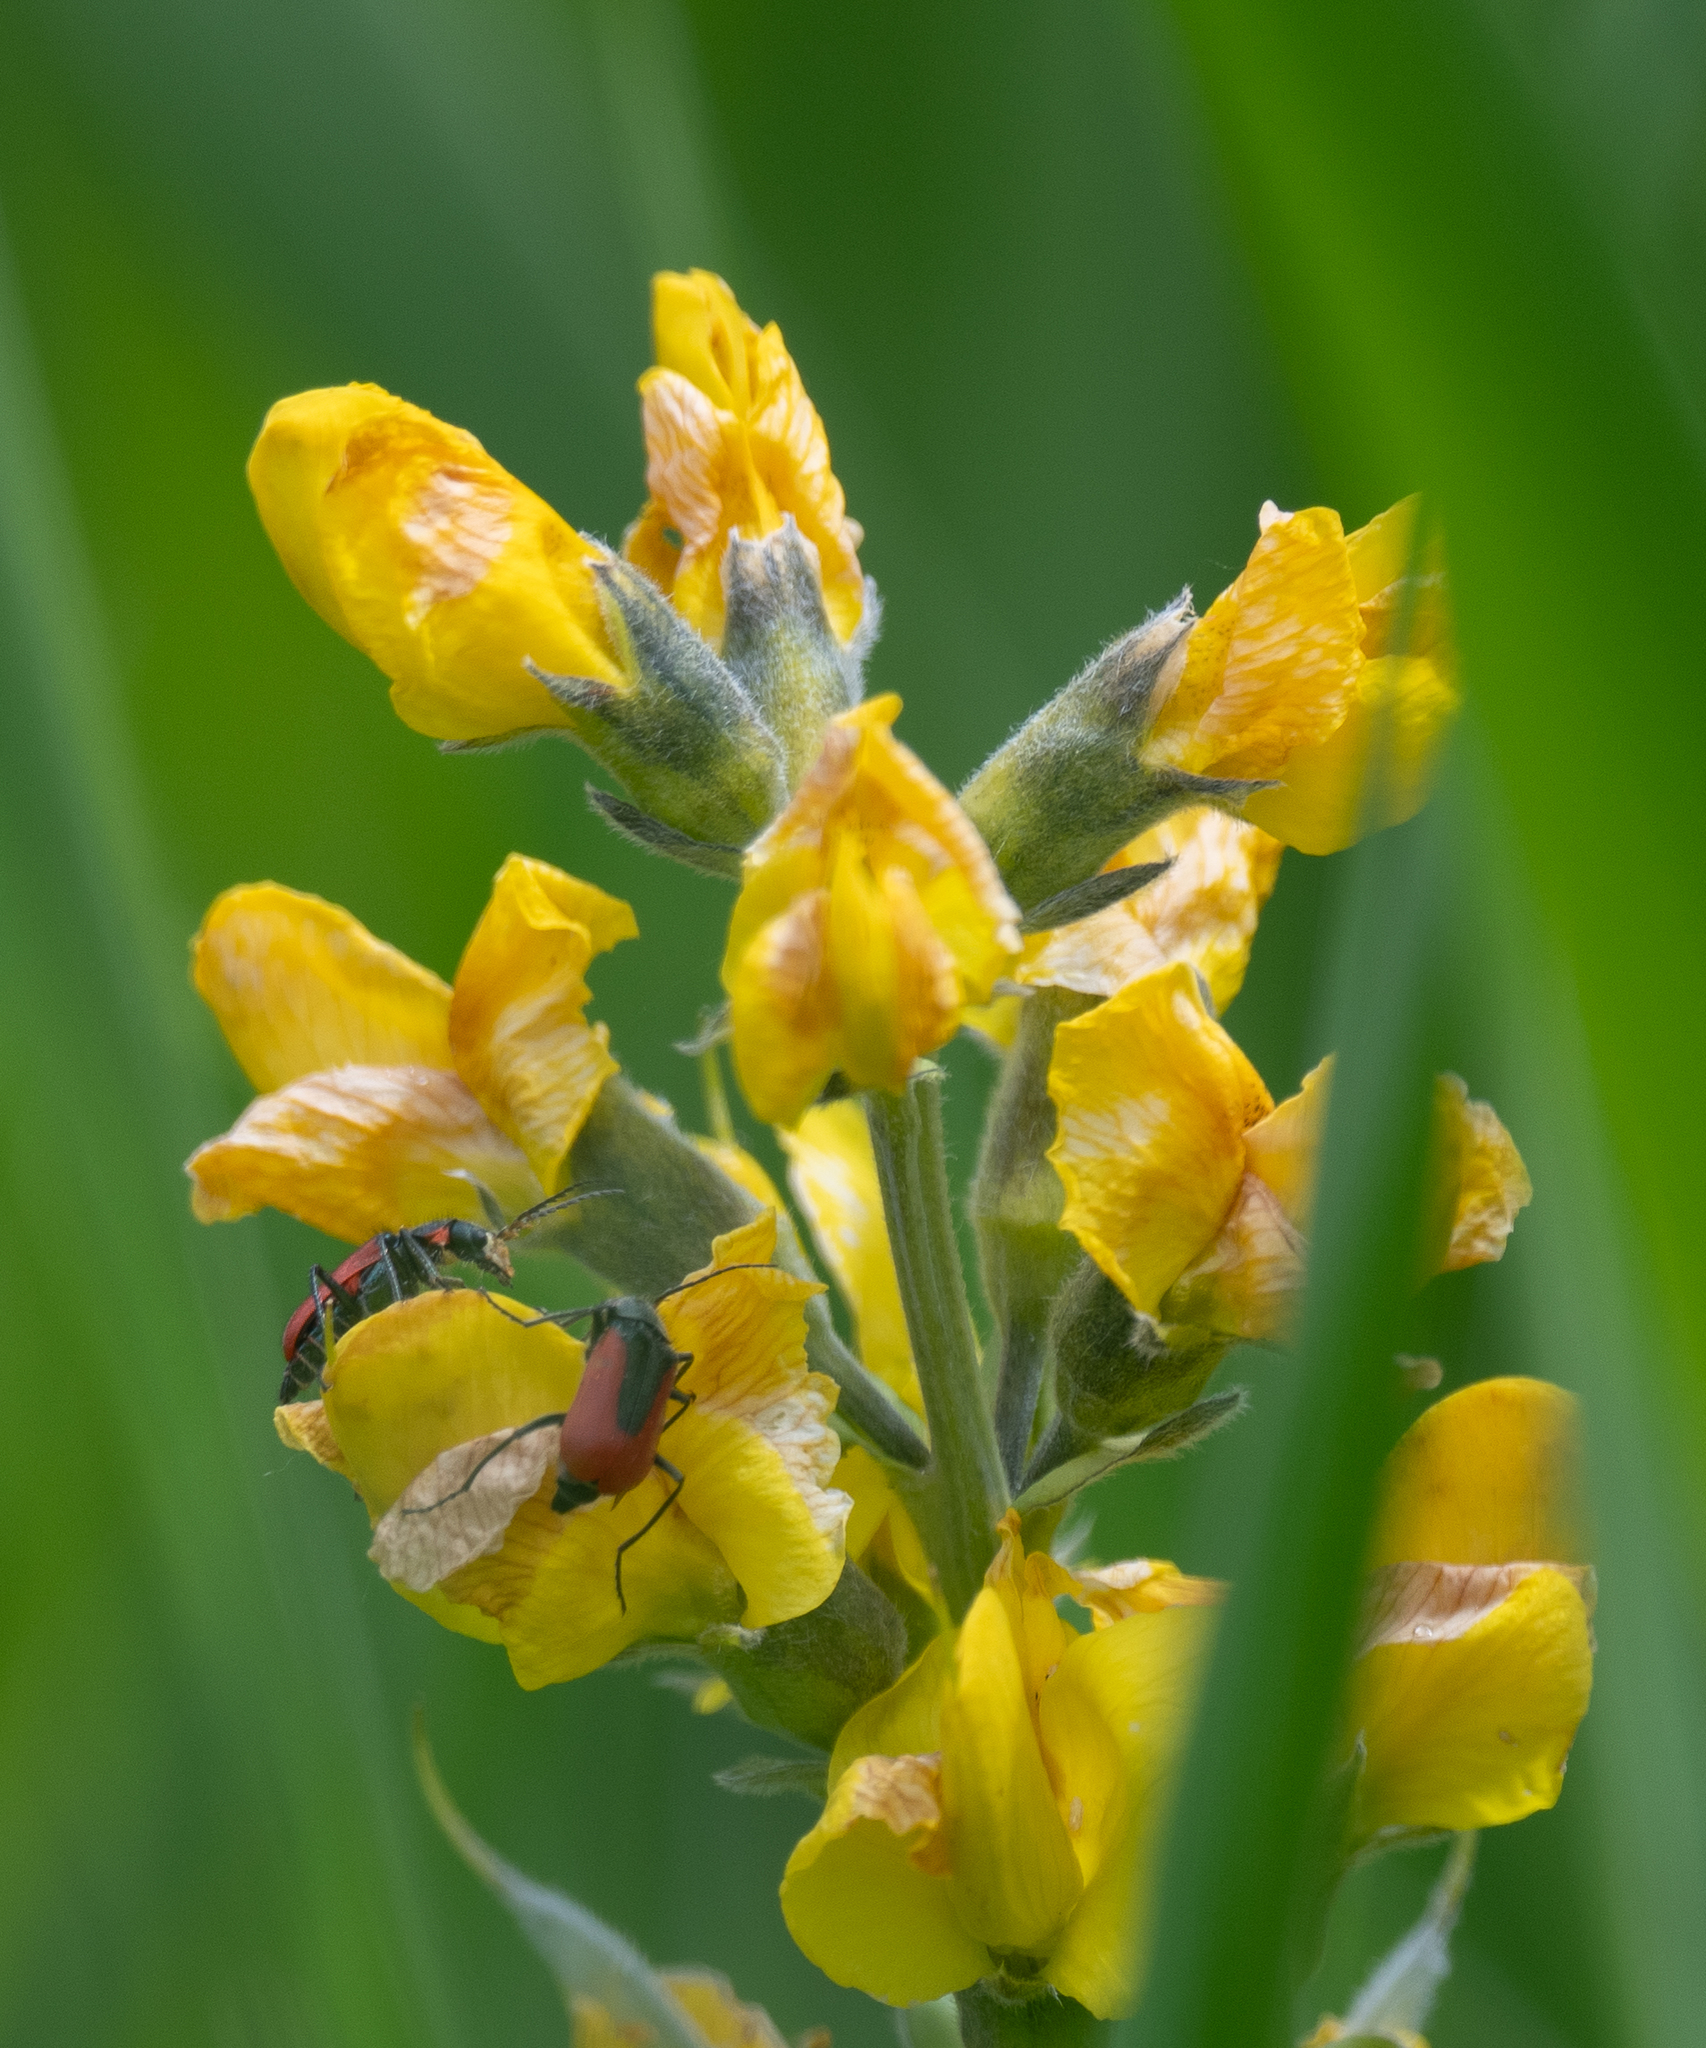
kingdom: Animalia
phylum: Arthropoda
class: Insecta
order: Coleoptera
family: Melyridae
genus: Malachius
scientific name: Malachius aeneus
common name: Scarlet malachite beetle
